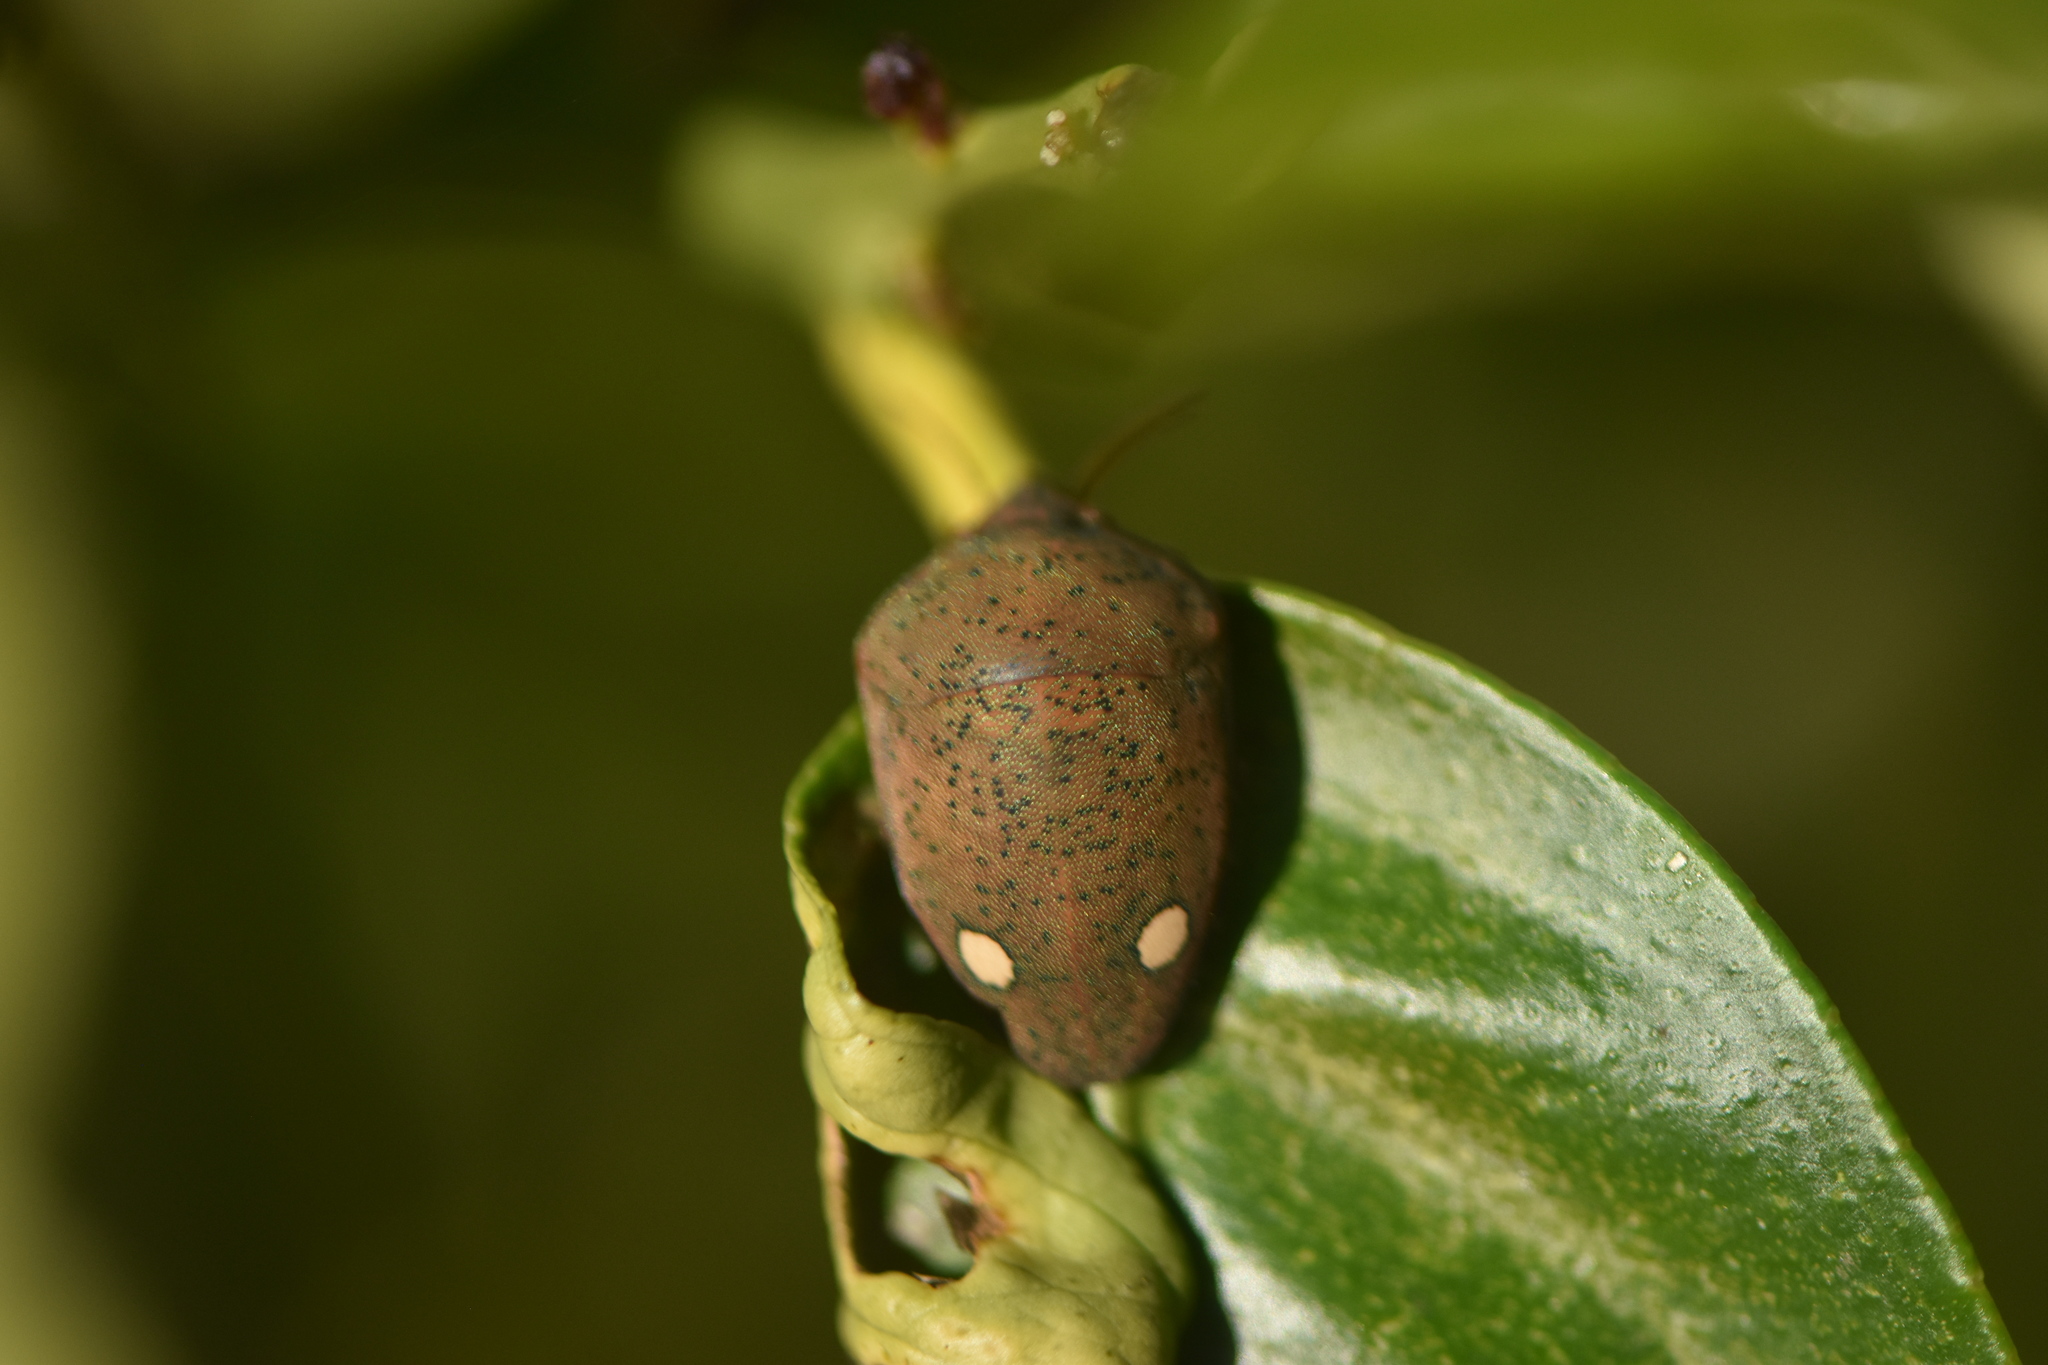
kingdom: Animalia
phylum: Arthropoda
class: Insecta
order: Hemiptera
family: Scutelleridae
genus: Solenosthedium
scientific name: Solenosthedium bilunatum
